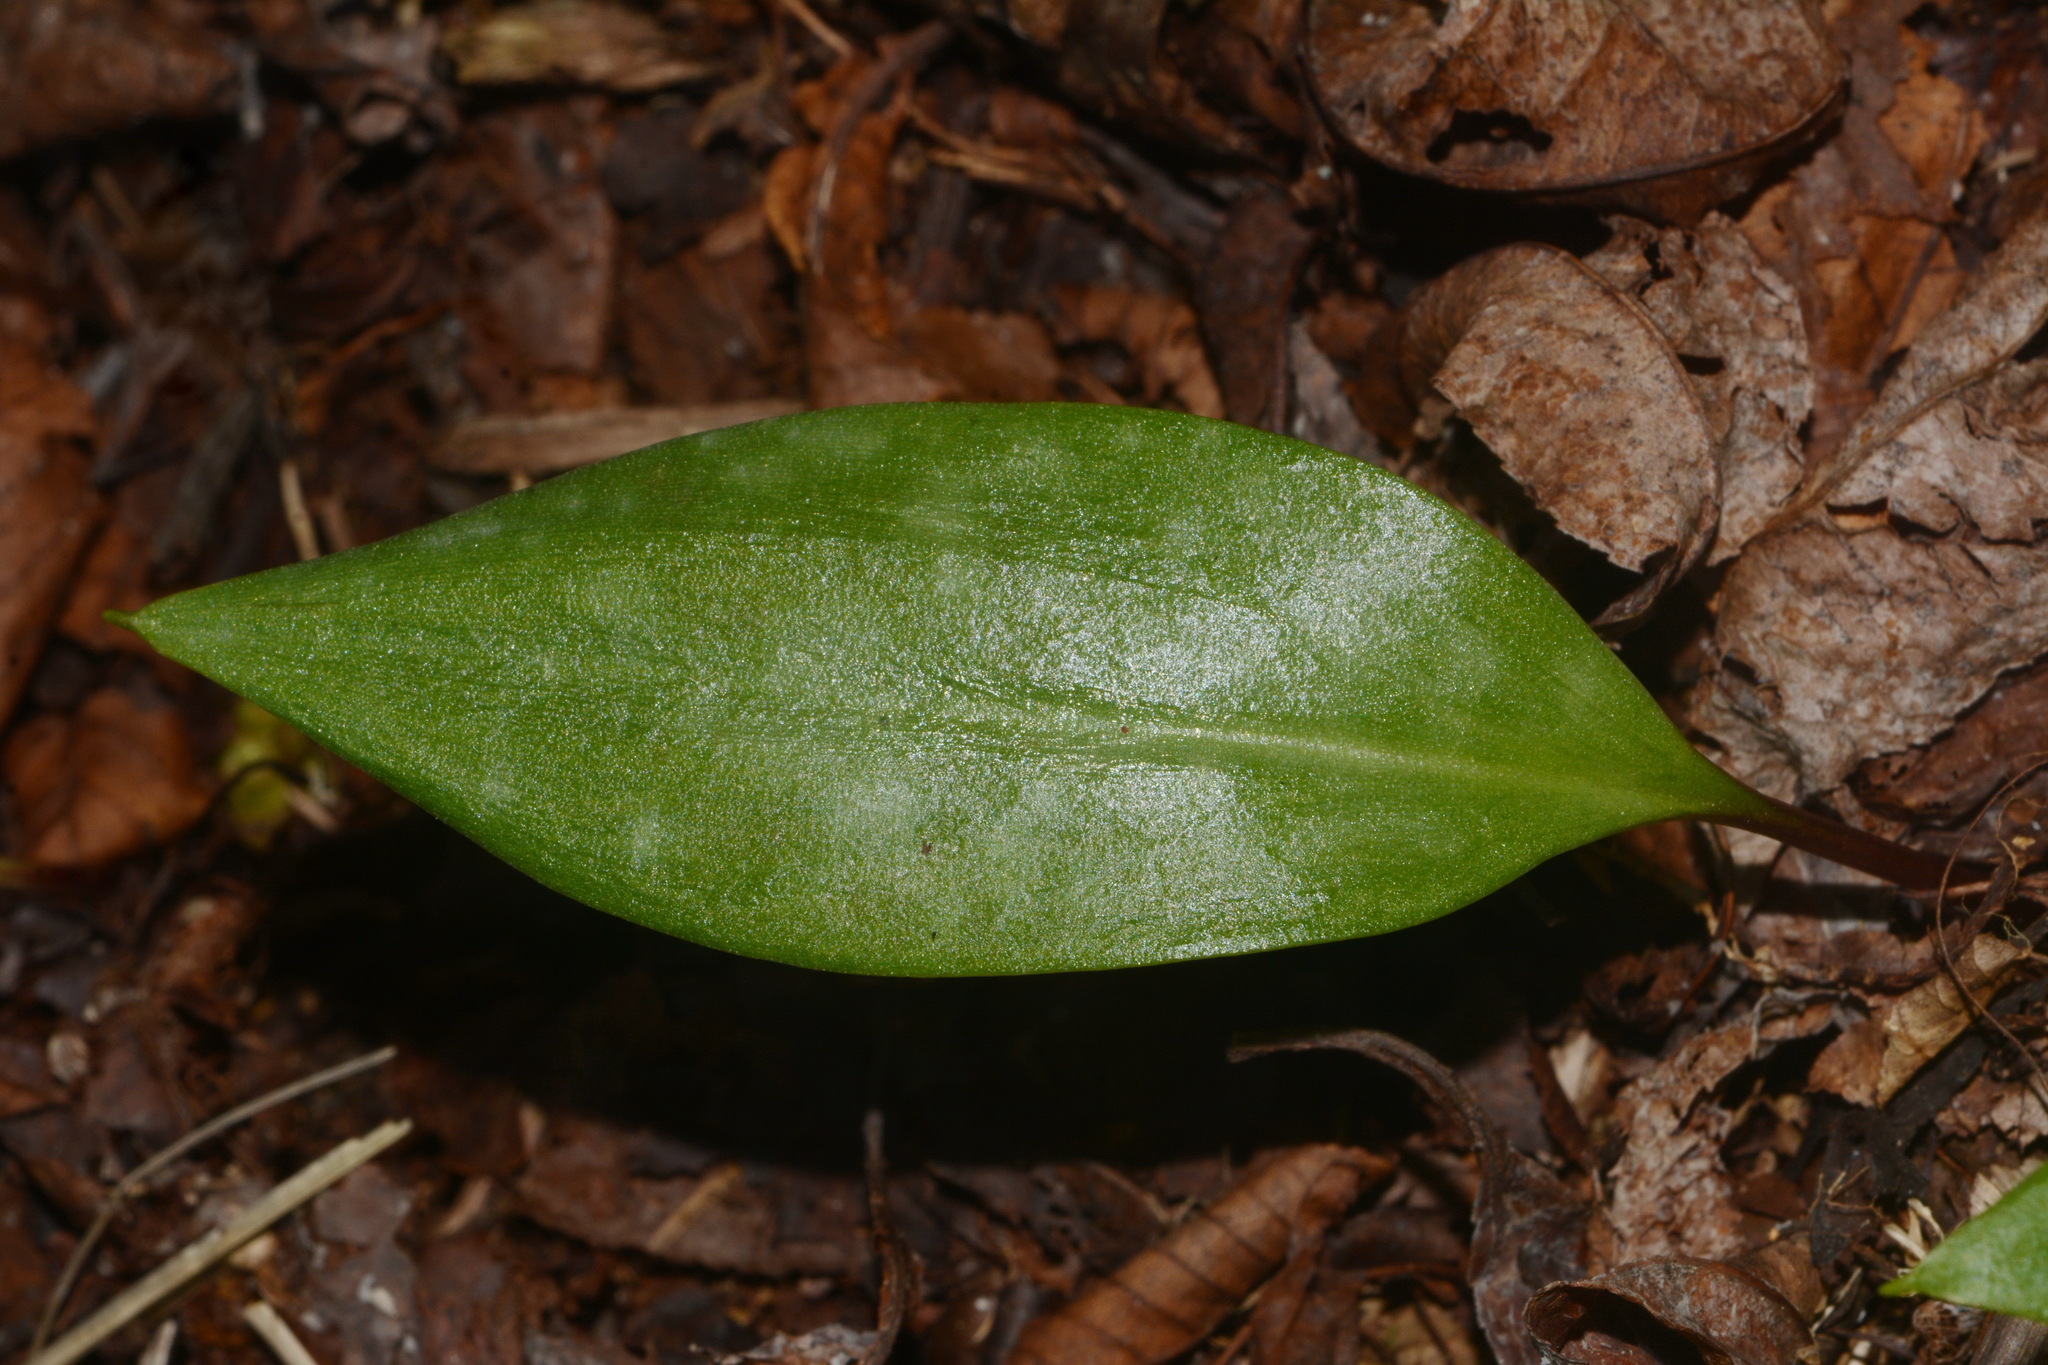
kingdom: Plantae
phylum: Tracheophyta
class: Liliopsida
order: Liliales
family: Liliaceae
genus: Erythronium
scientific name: Erythronium umbilicatum
